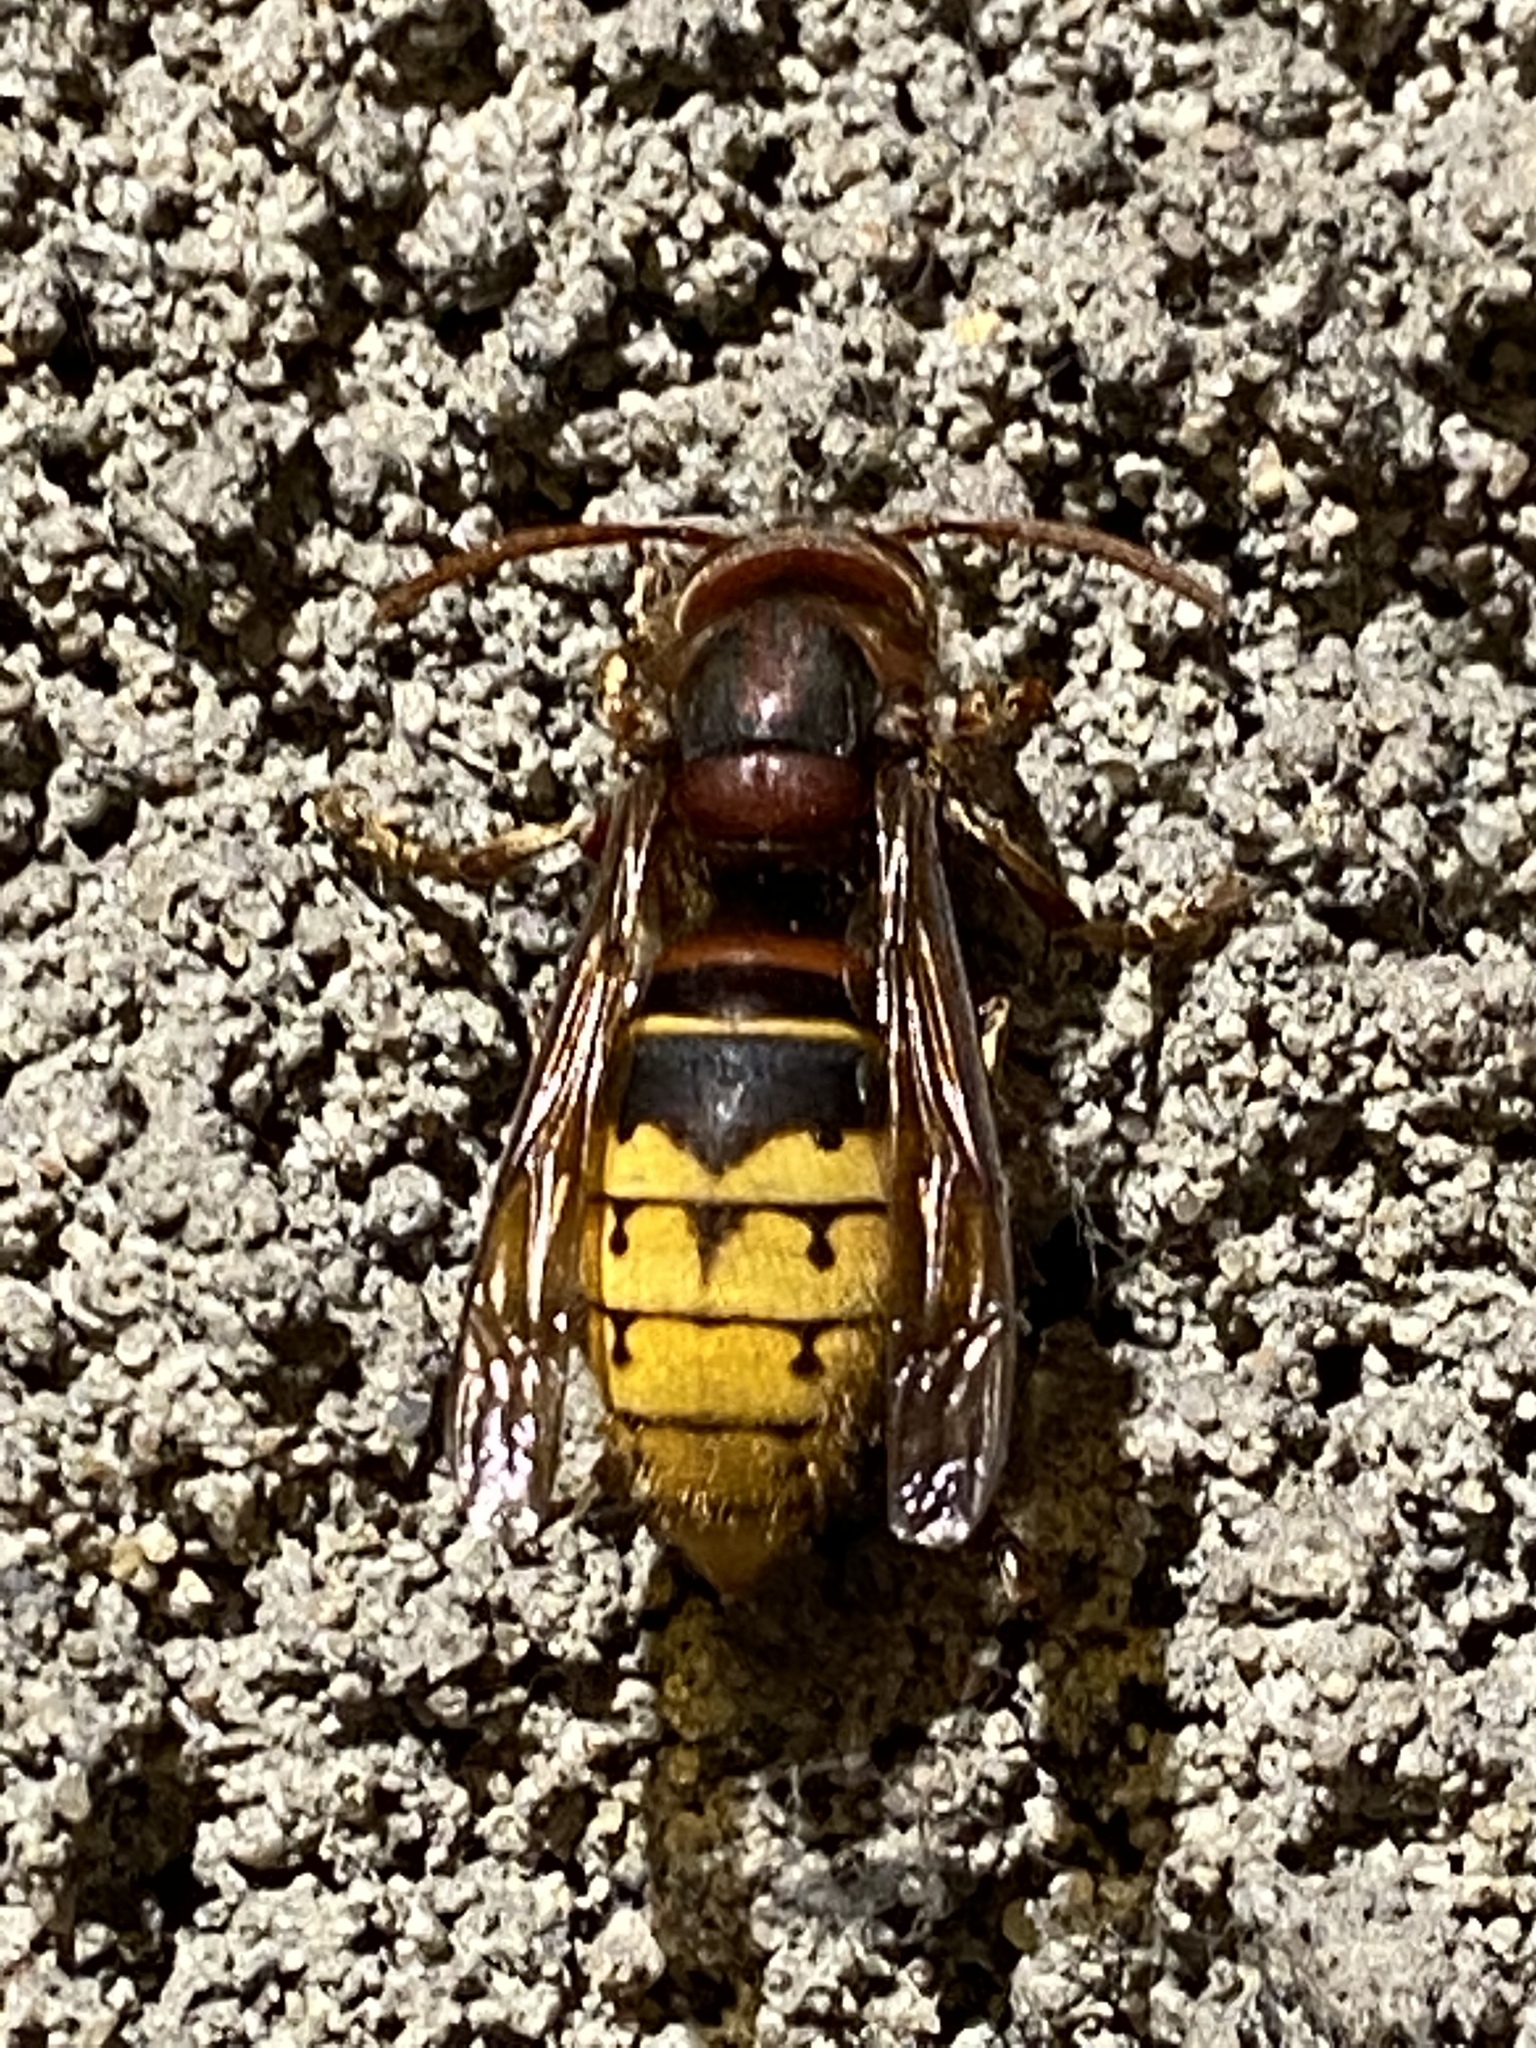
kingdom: Animalia
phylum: Arthropoda
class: Insecta
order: Hymenoptera
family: Vespidae
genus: Vespa
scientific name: Vespa crabro
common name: Hornet
